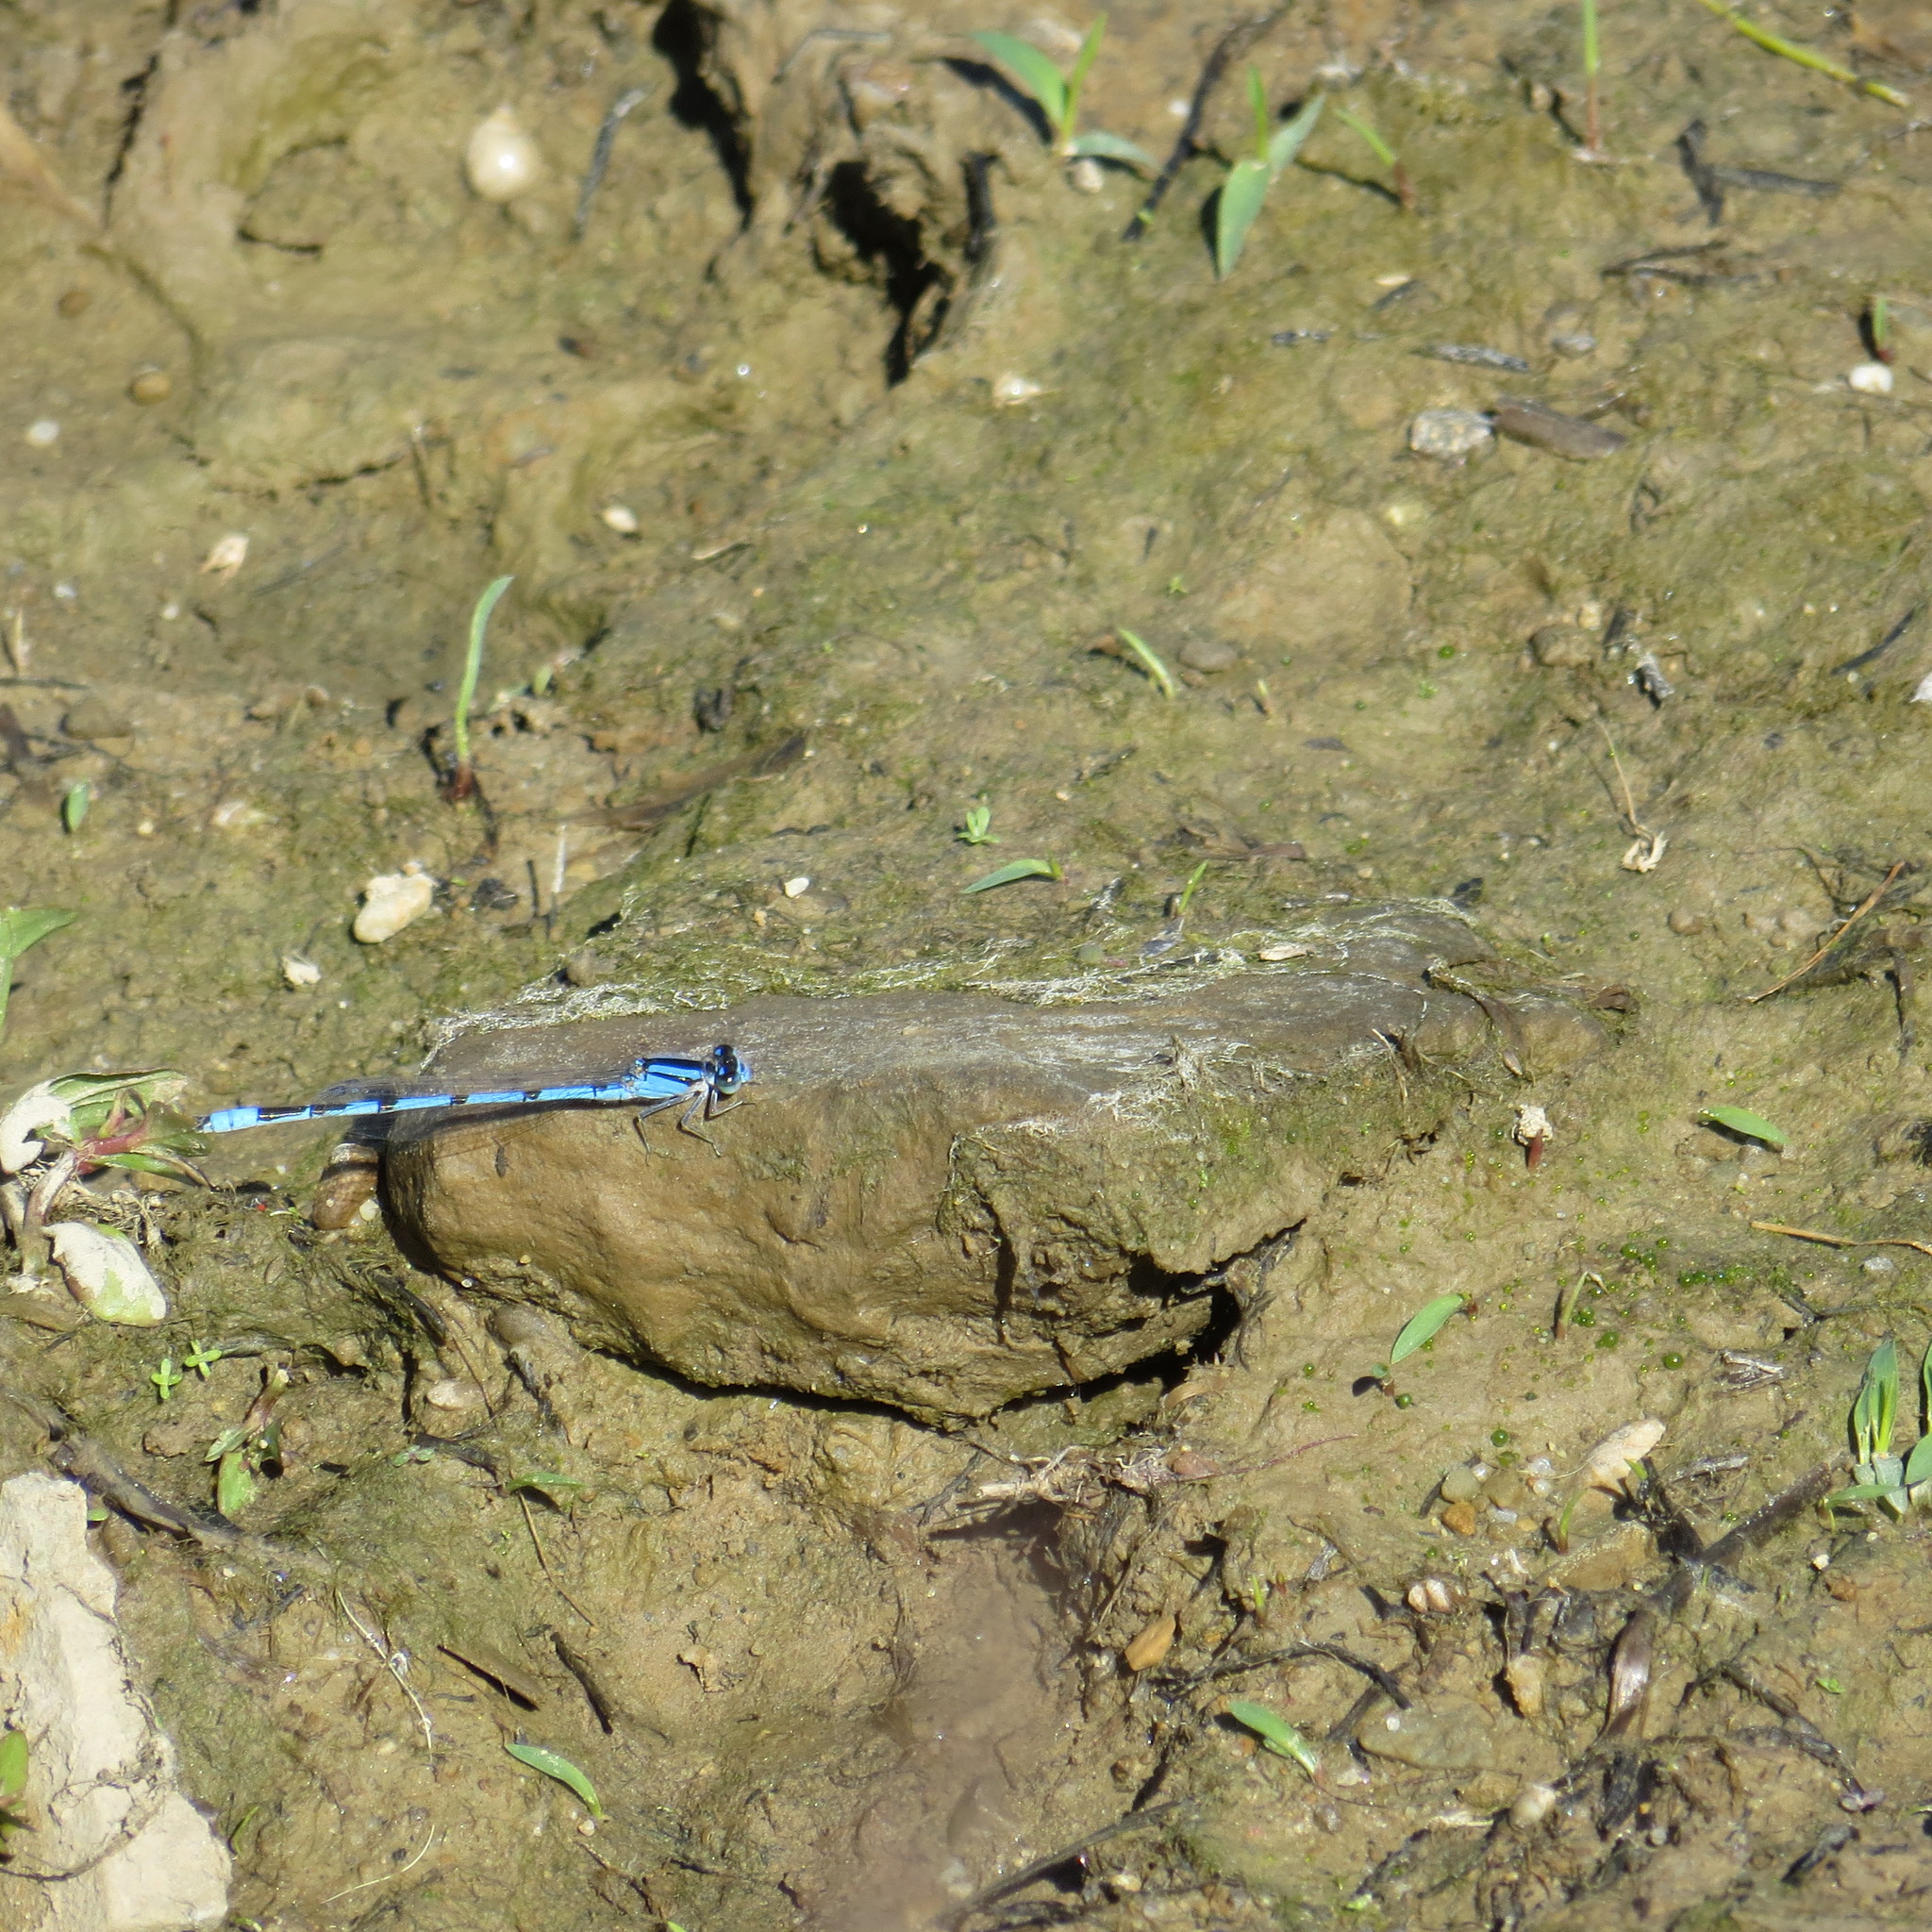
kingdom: Animalia
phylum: Arthropoda
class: Insecta
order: Odonata
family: Coenagrionidae
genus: Enallagma
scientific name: Enallagma civile
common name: Damselfly
